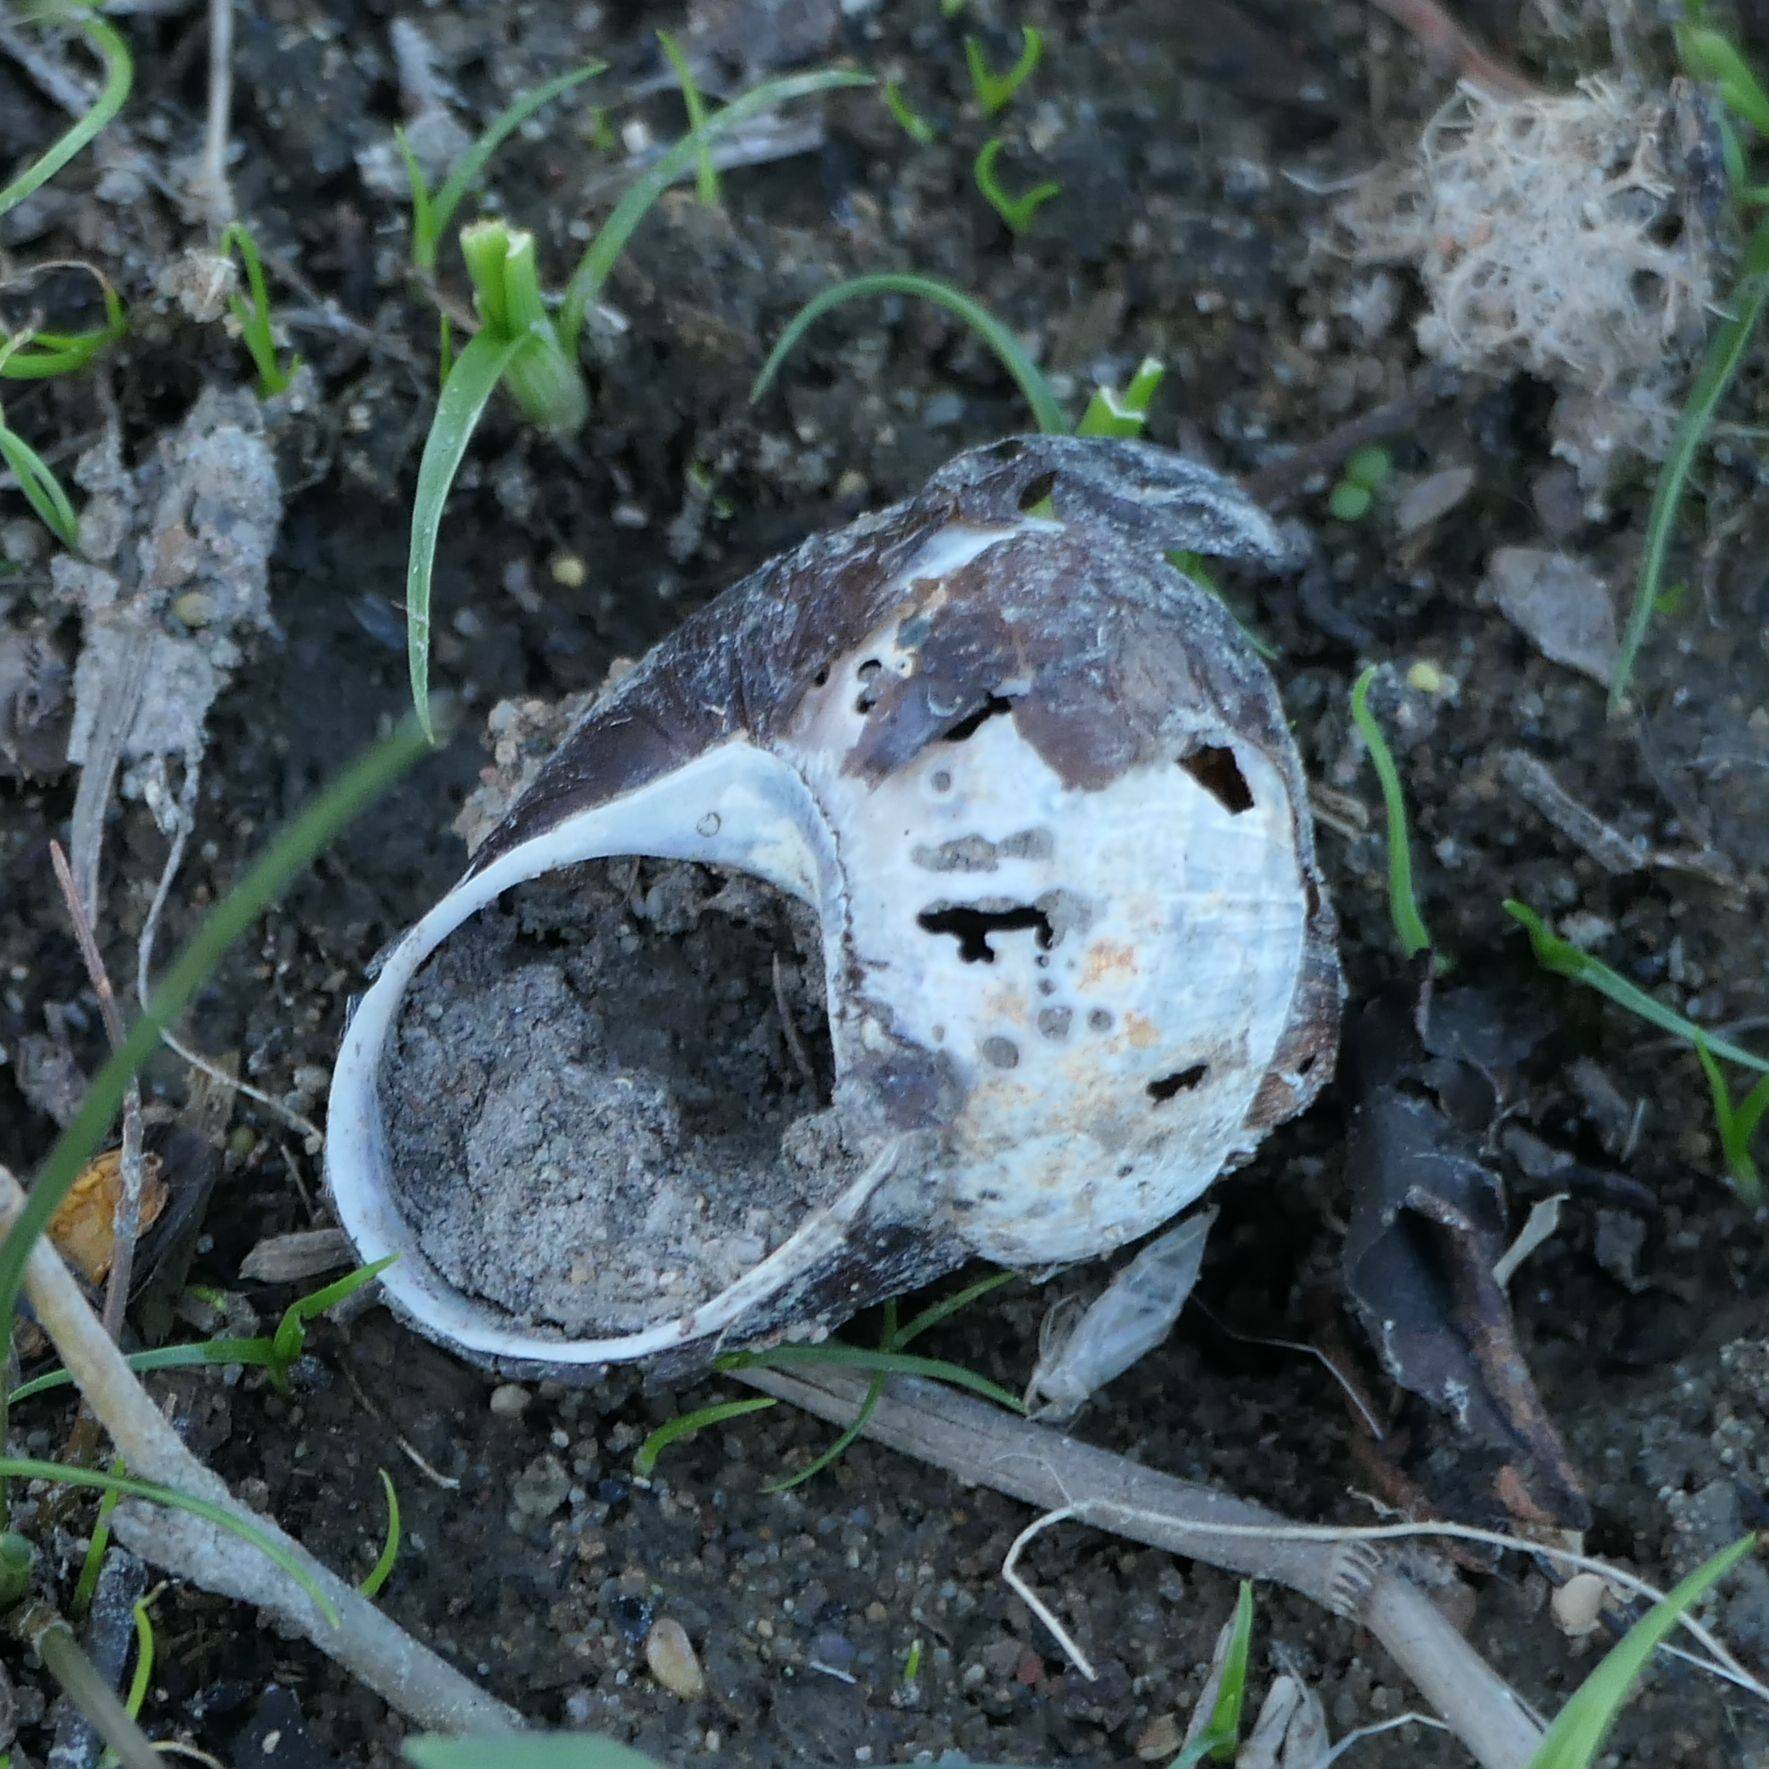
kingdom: Animalia
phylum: Mollusca
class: Gastropoda
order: Stylommatophora
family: Helicidae
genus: Cornu
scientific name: Cornu aspersum
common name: Brown garden snail
